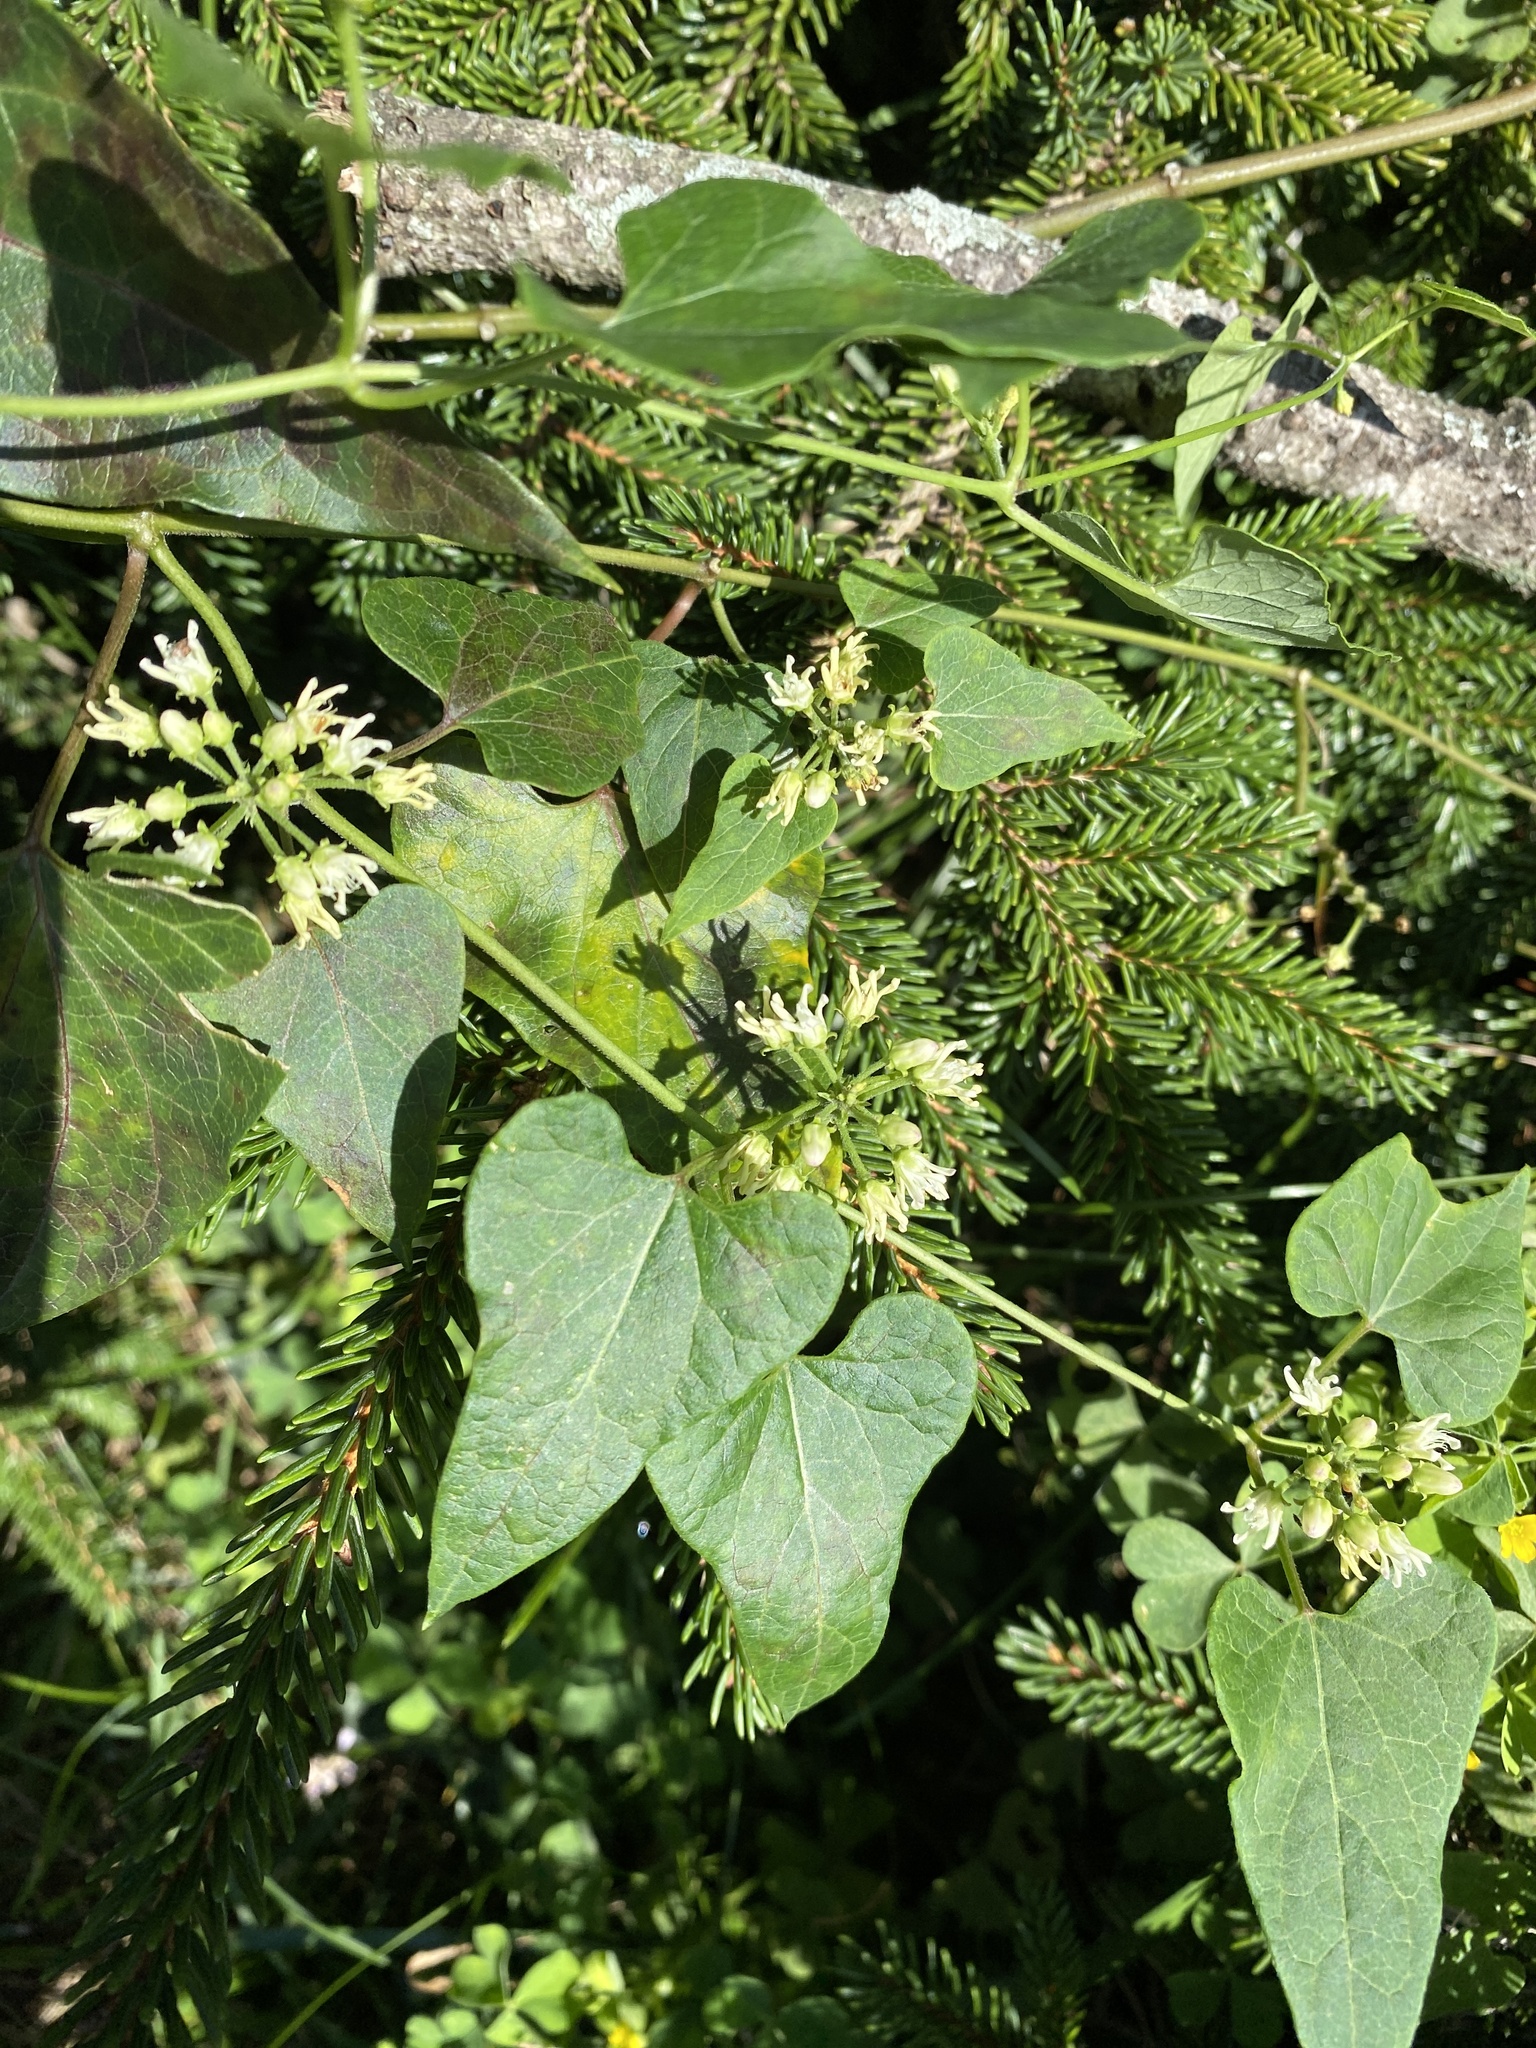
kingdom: Plantae
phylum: Tracheophyta
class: Magnoliopsida
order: Gentianales
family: Apocynaceae
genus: Cynanchum
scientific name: Cynanchum laeve
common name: Sandvine
